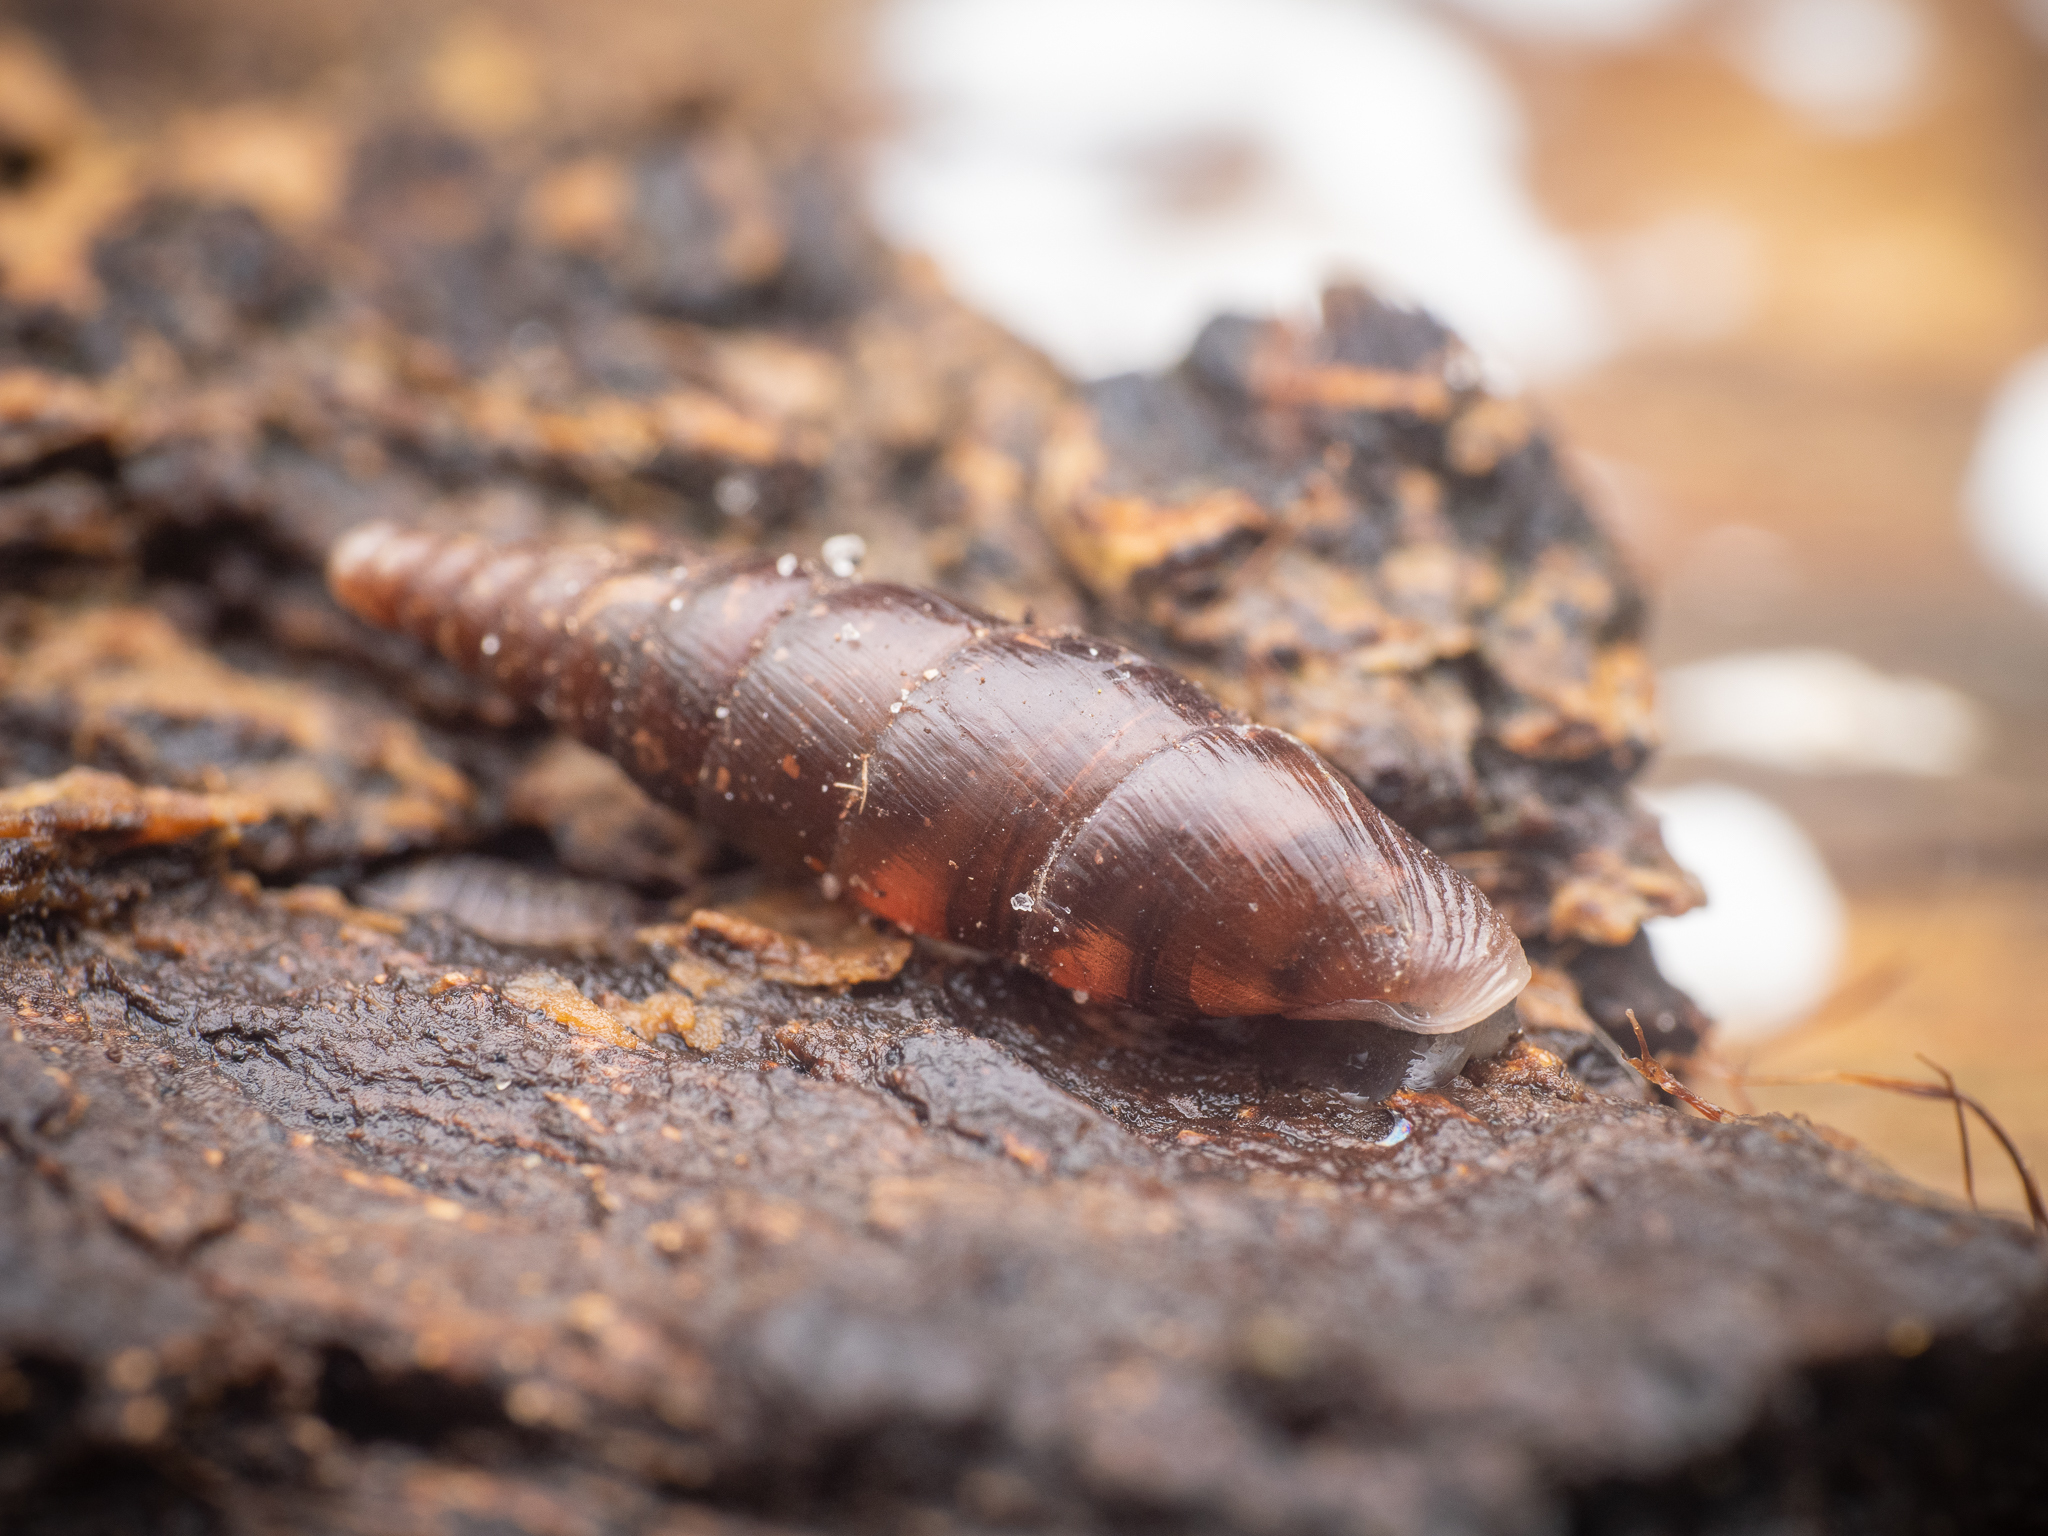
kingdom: Animalia
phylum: Mollusca
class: Gastropoda
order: Stylommatophora
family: Clausiliidae
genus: Cochlodina
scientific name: Cochlodina laminata
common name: Plaited door snail
